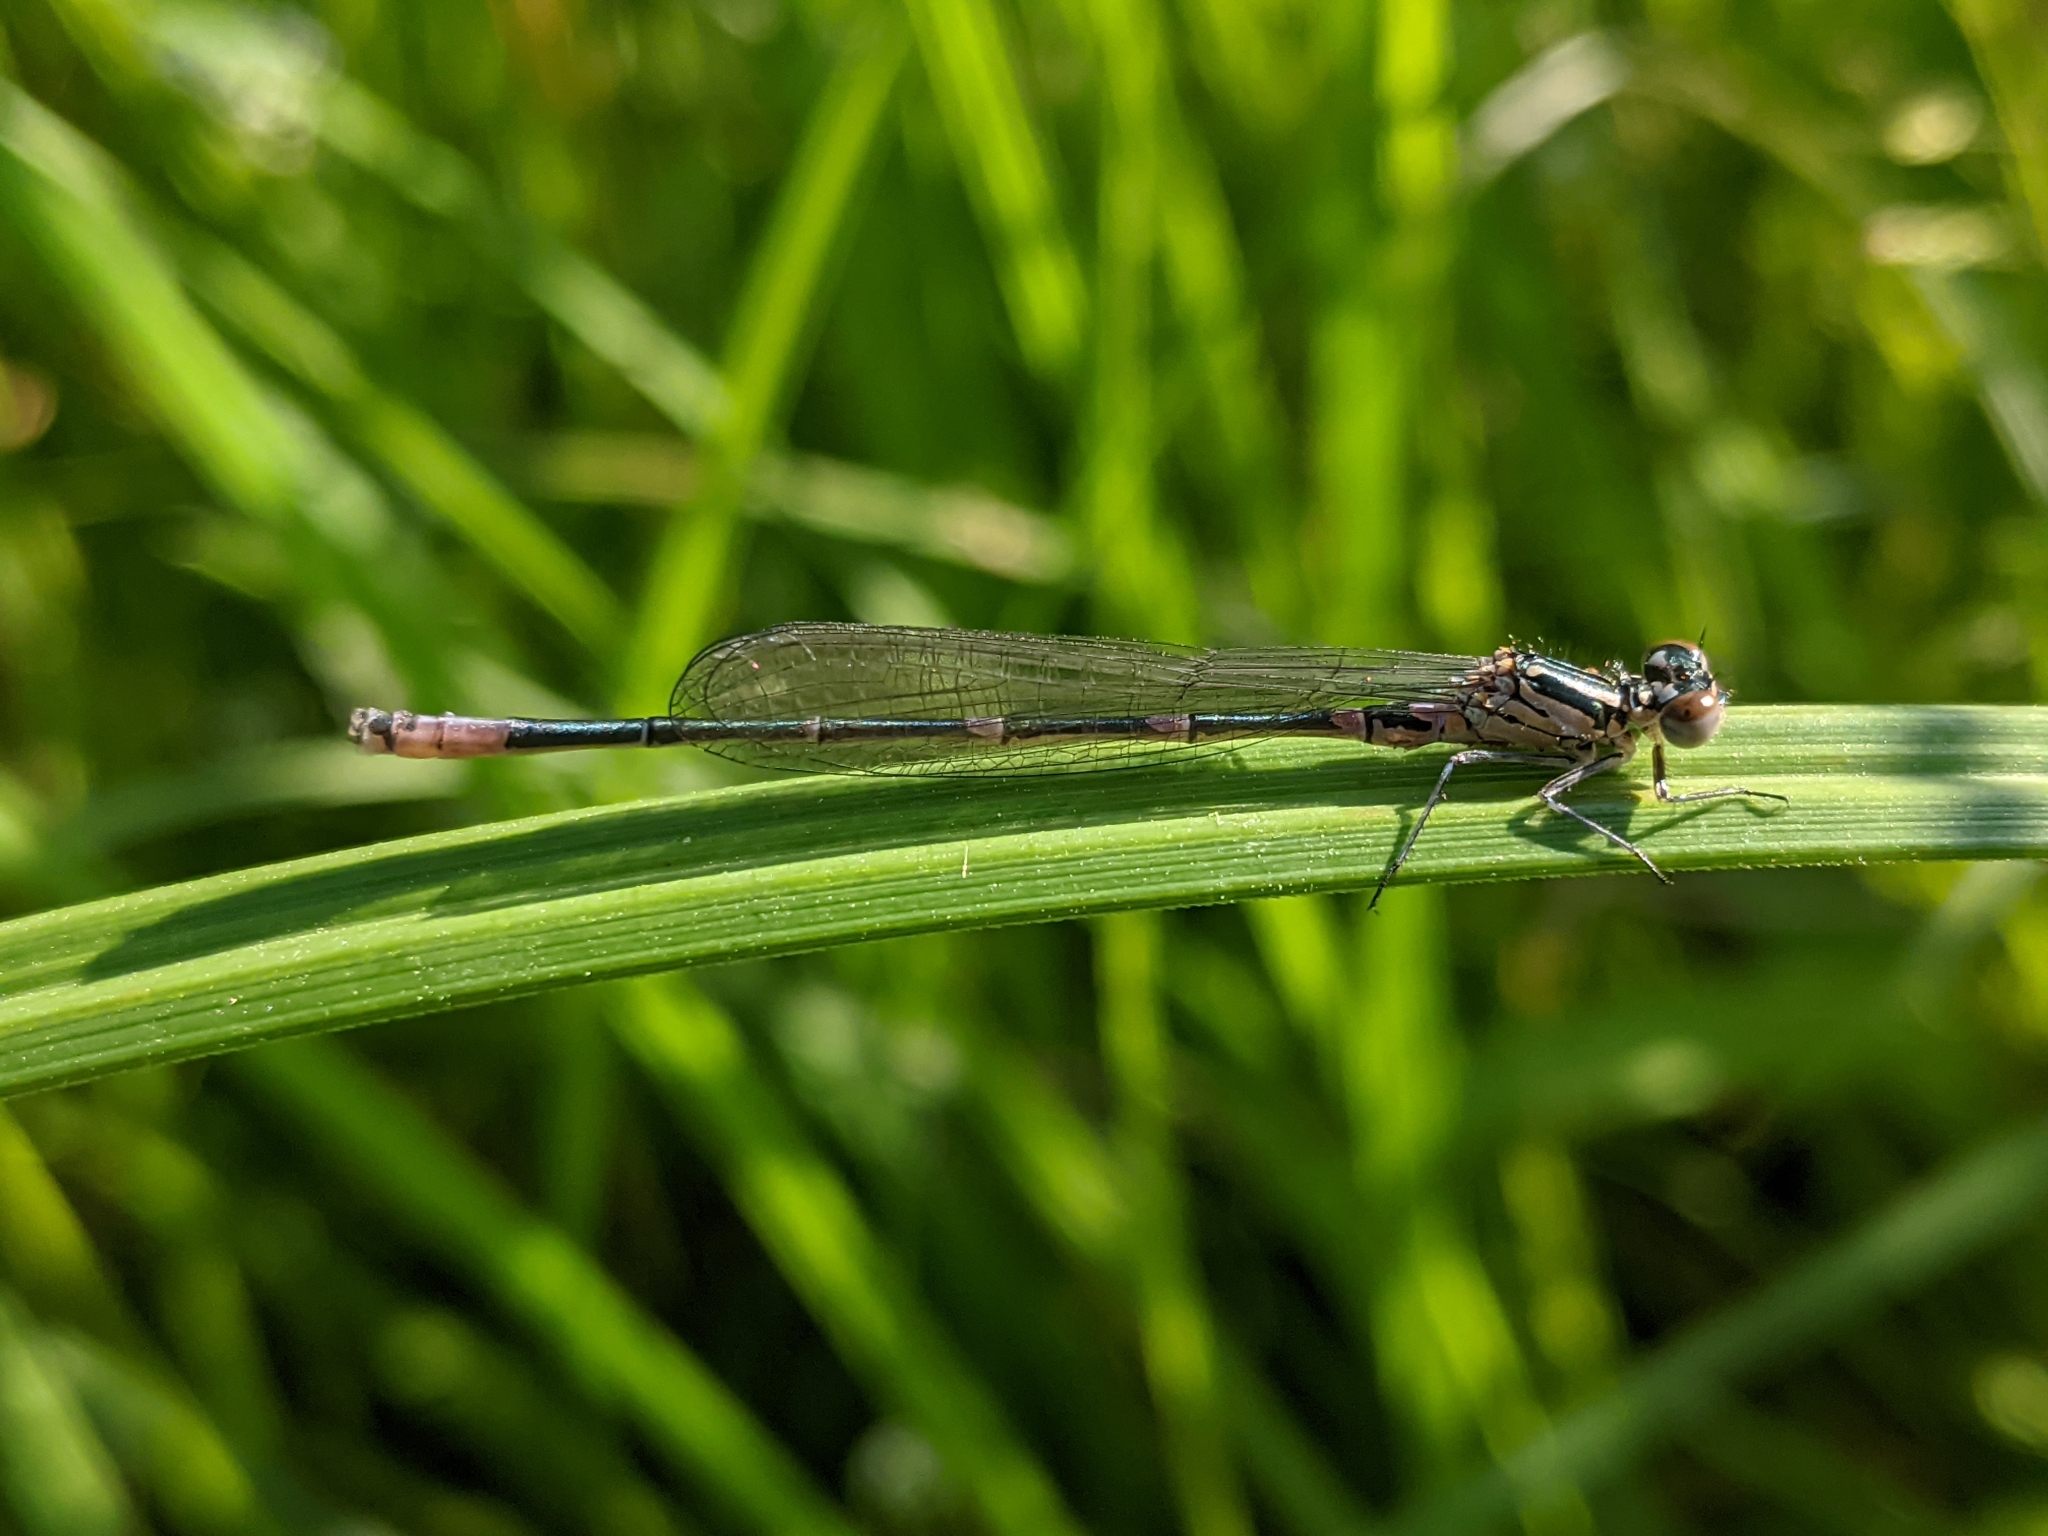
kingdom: Animalia
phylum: Arthropoda
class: Insecta
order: Odonata
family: Coenagrionidae
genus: Coenagrion
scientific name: Coenagrion pulchellum
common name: Variable bluet
